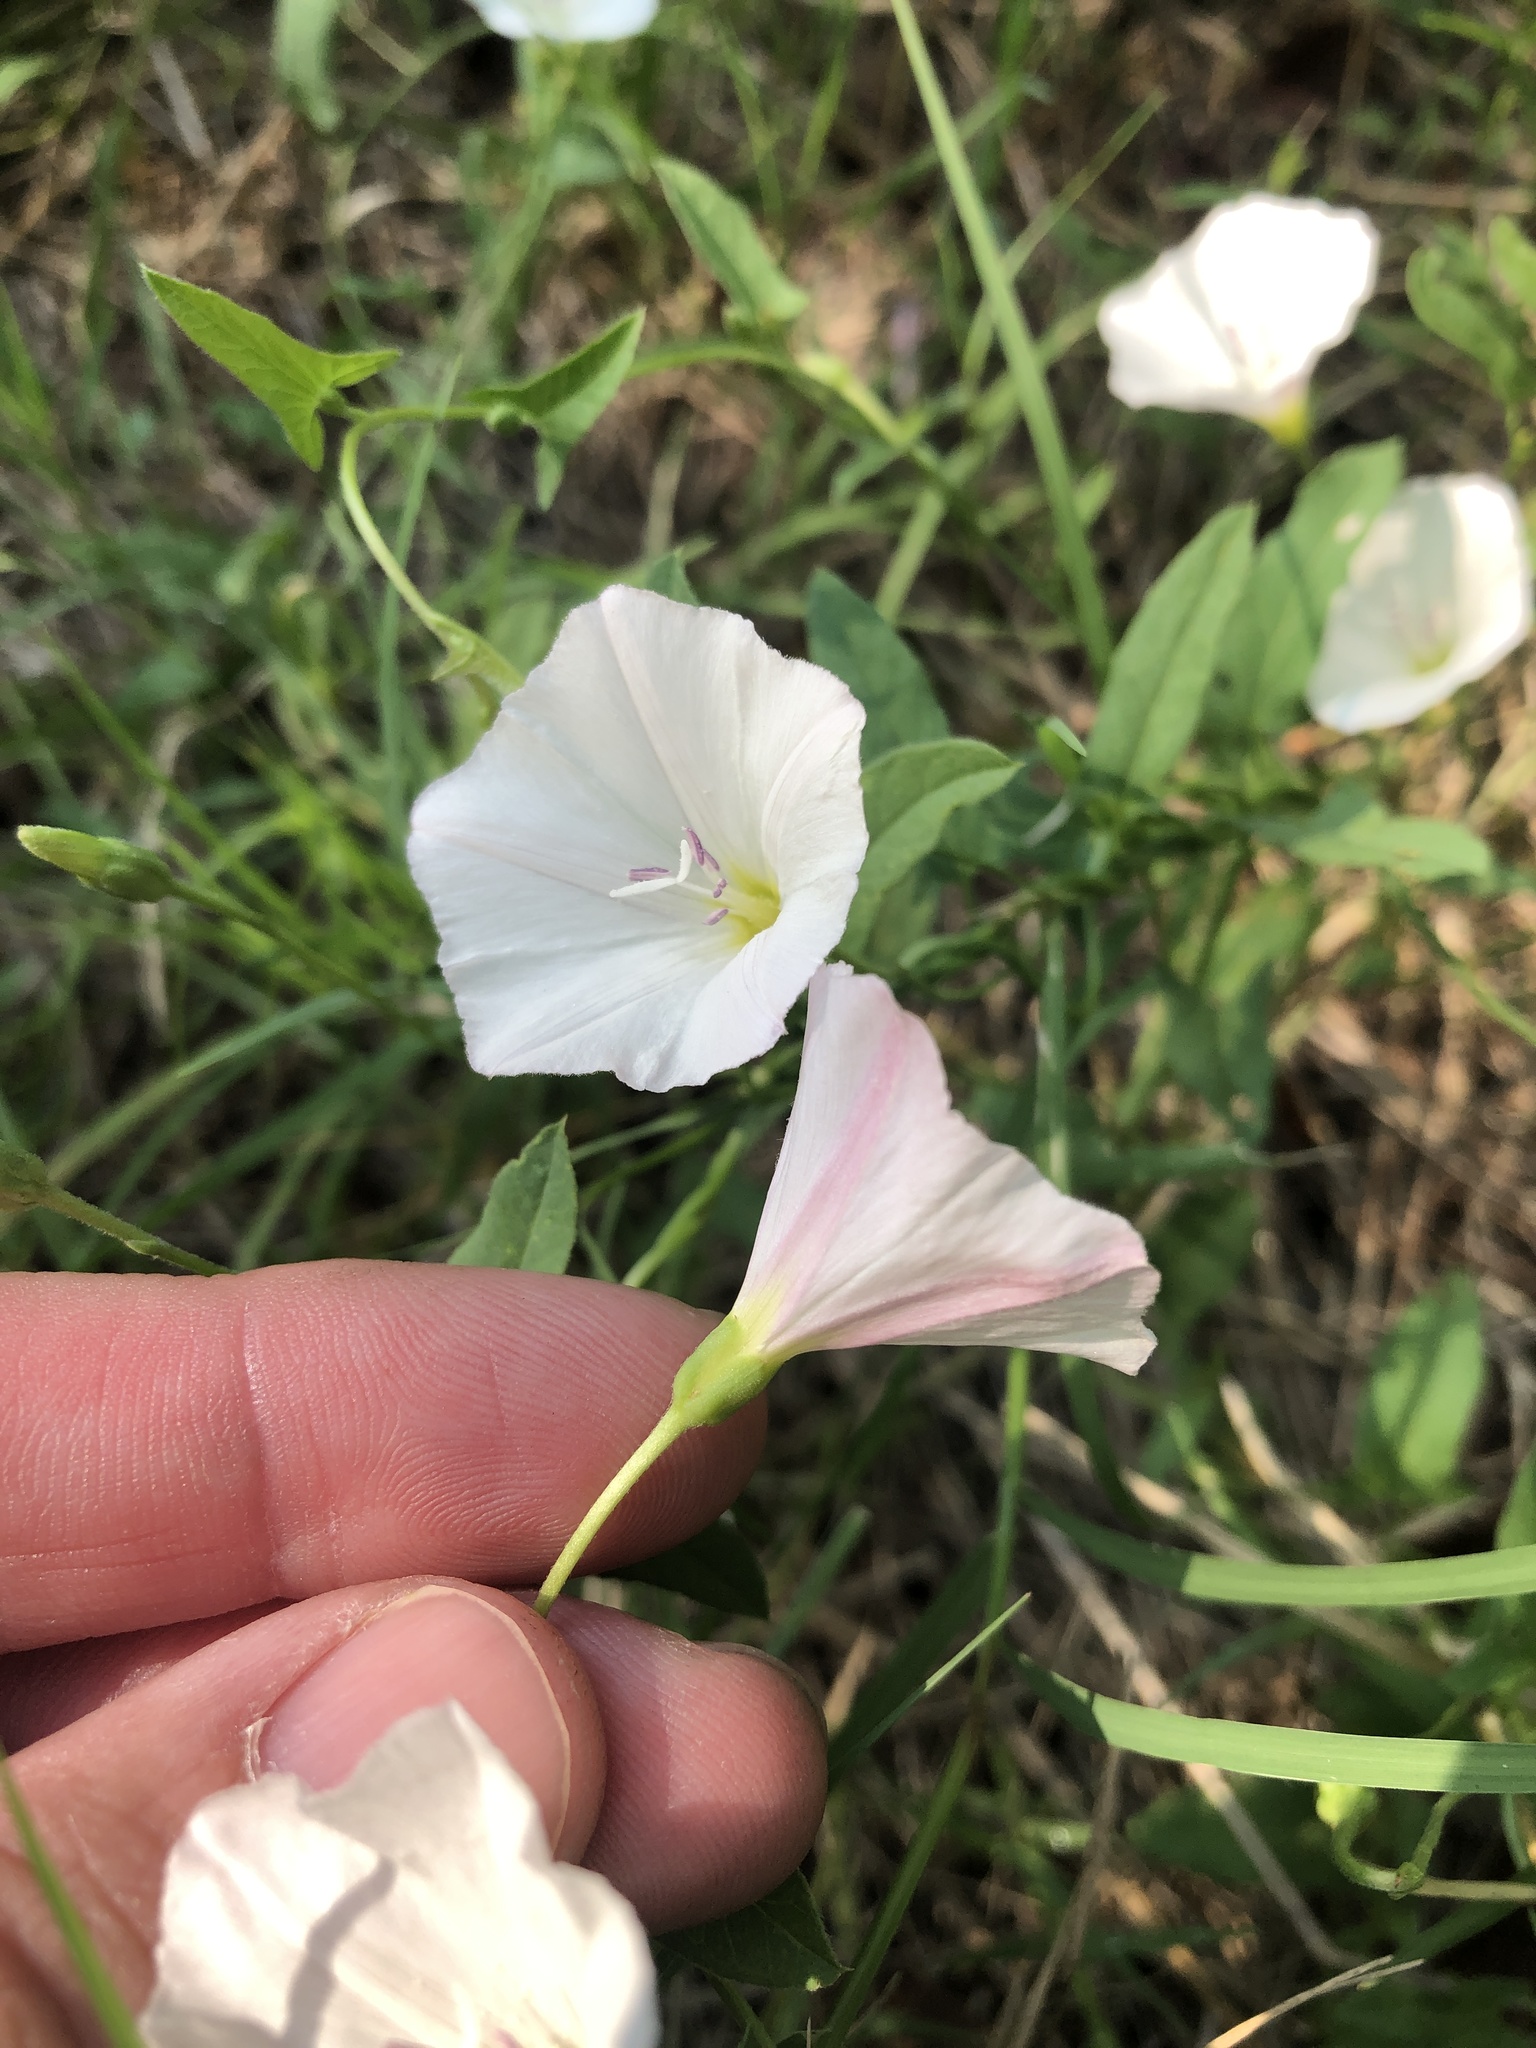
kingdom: Plantae
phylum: Tracheophyta
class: Magnoliopsida
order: Solanales
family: Convolvulaceae
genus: Convolvulus
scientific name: Convolvulus arvensis
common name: Field bindweed
